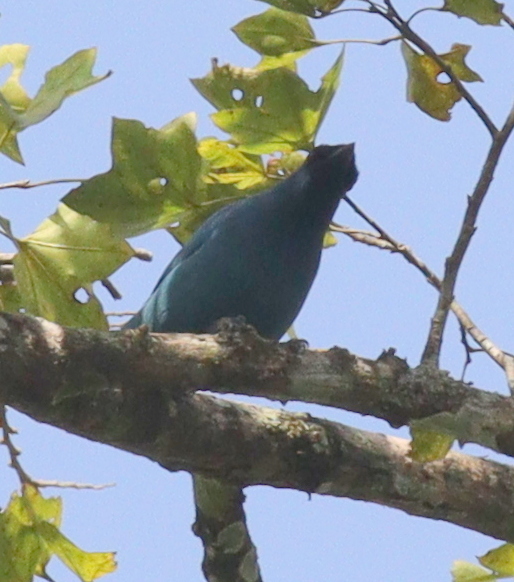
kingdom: Animalia
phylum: Chordata
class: Aves
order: Passeriformes
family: Campephagidae
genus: Coracina
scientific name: Coracina azurea
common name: Blue cuckooshrike
